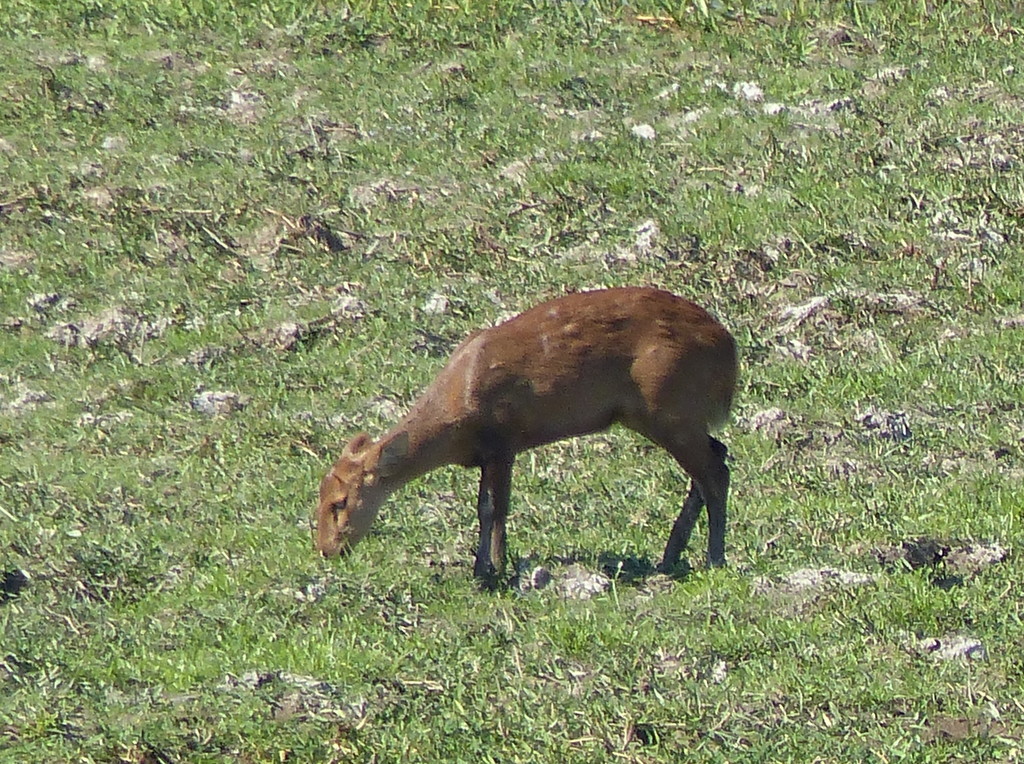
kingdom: Animalia
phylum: Chordata
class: Mammalia
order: Artiodactyla
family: Cervidae
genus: Axis
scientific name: Axis porcinus
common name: Hog deer
